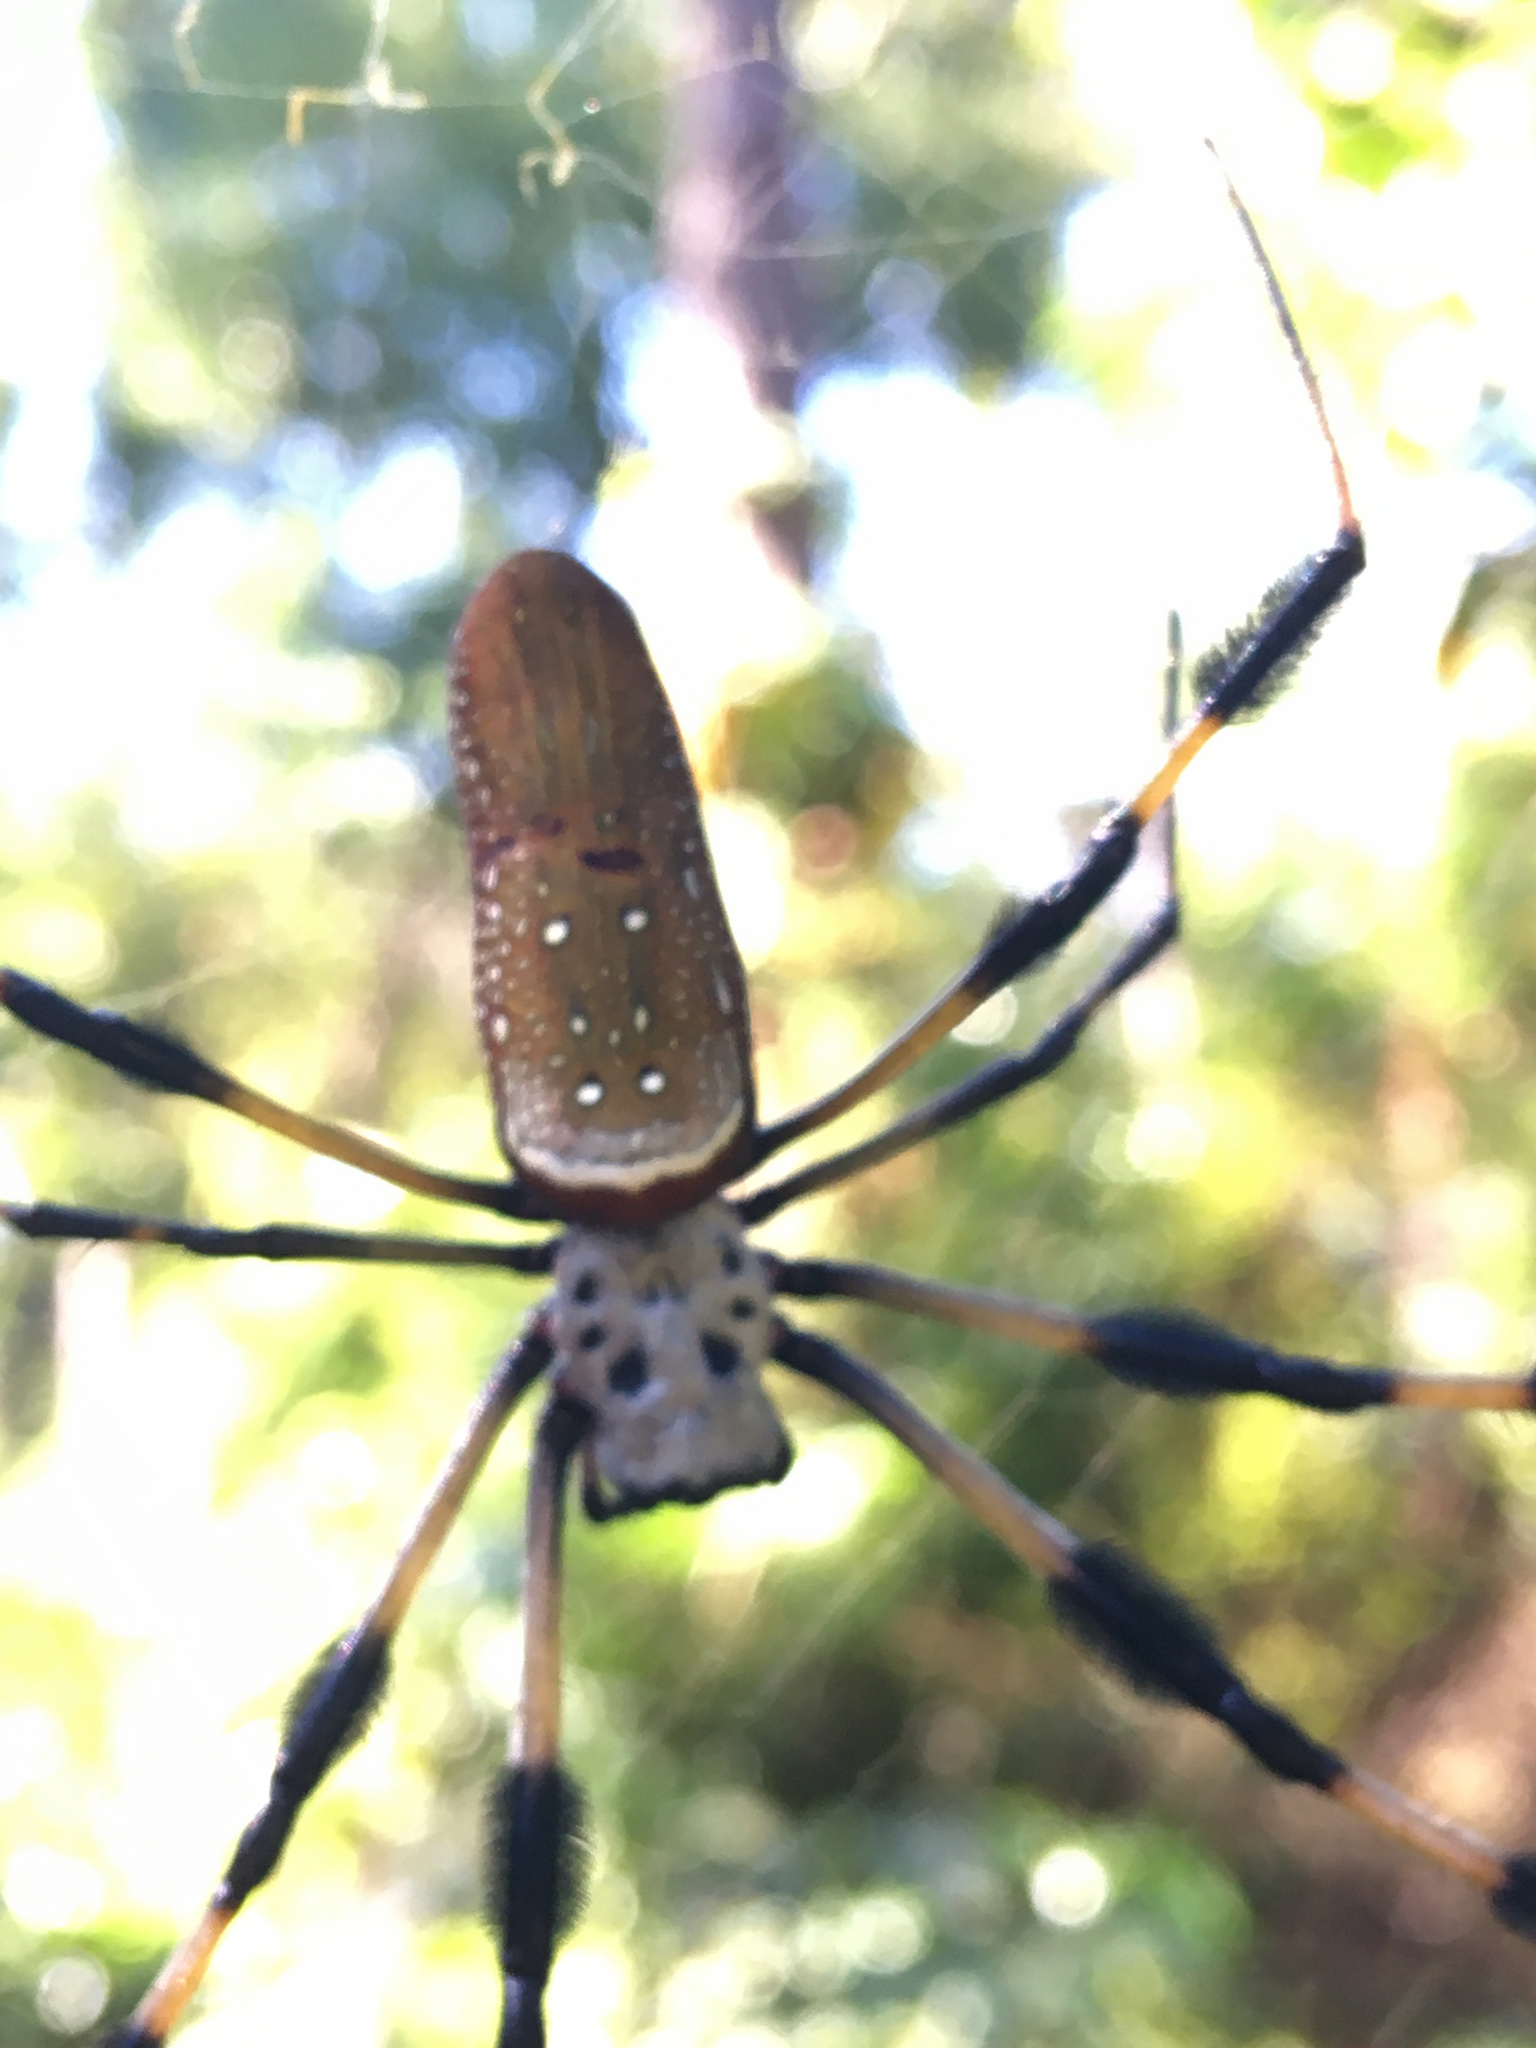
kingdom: Animalia
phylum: Arthropoda
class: Arachnida
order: Araneae
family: Araneidae
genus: Trichonephila
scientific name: Trichonephila clavipes
